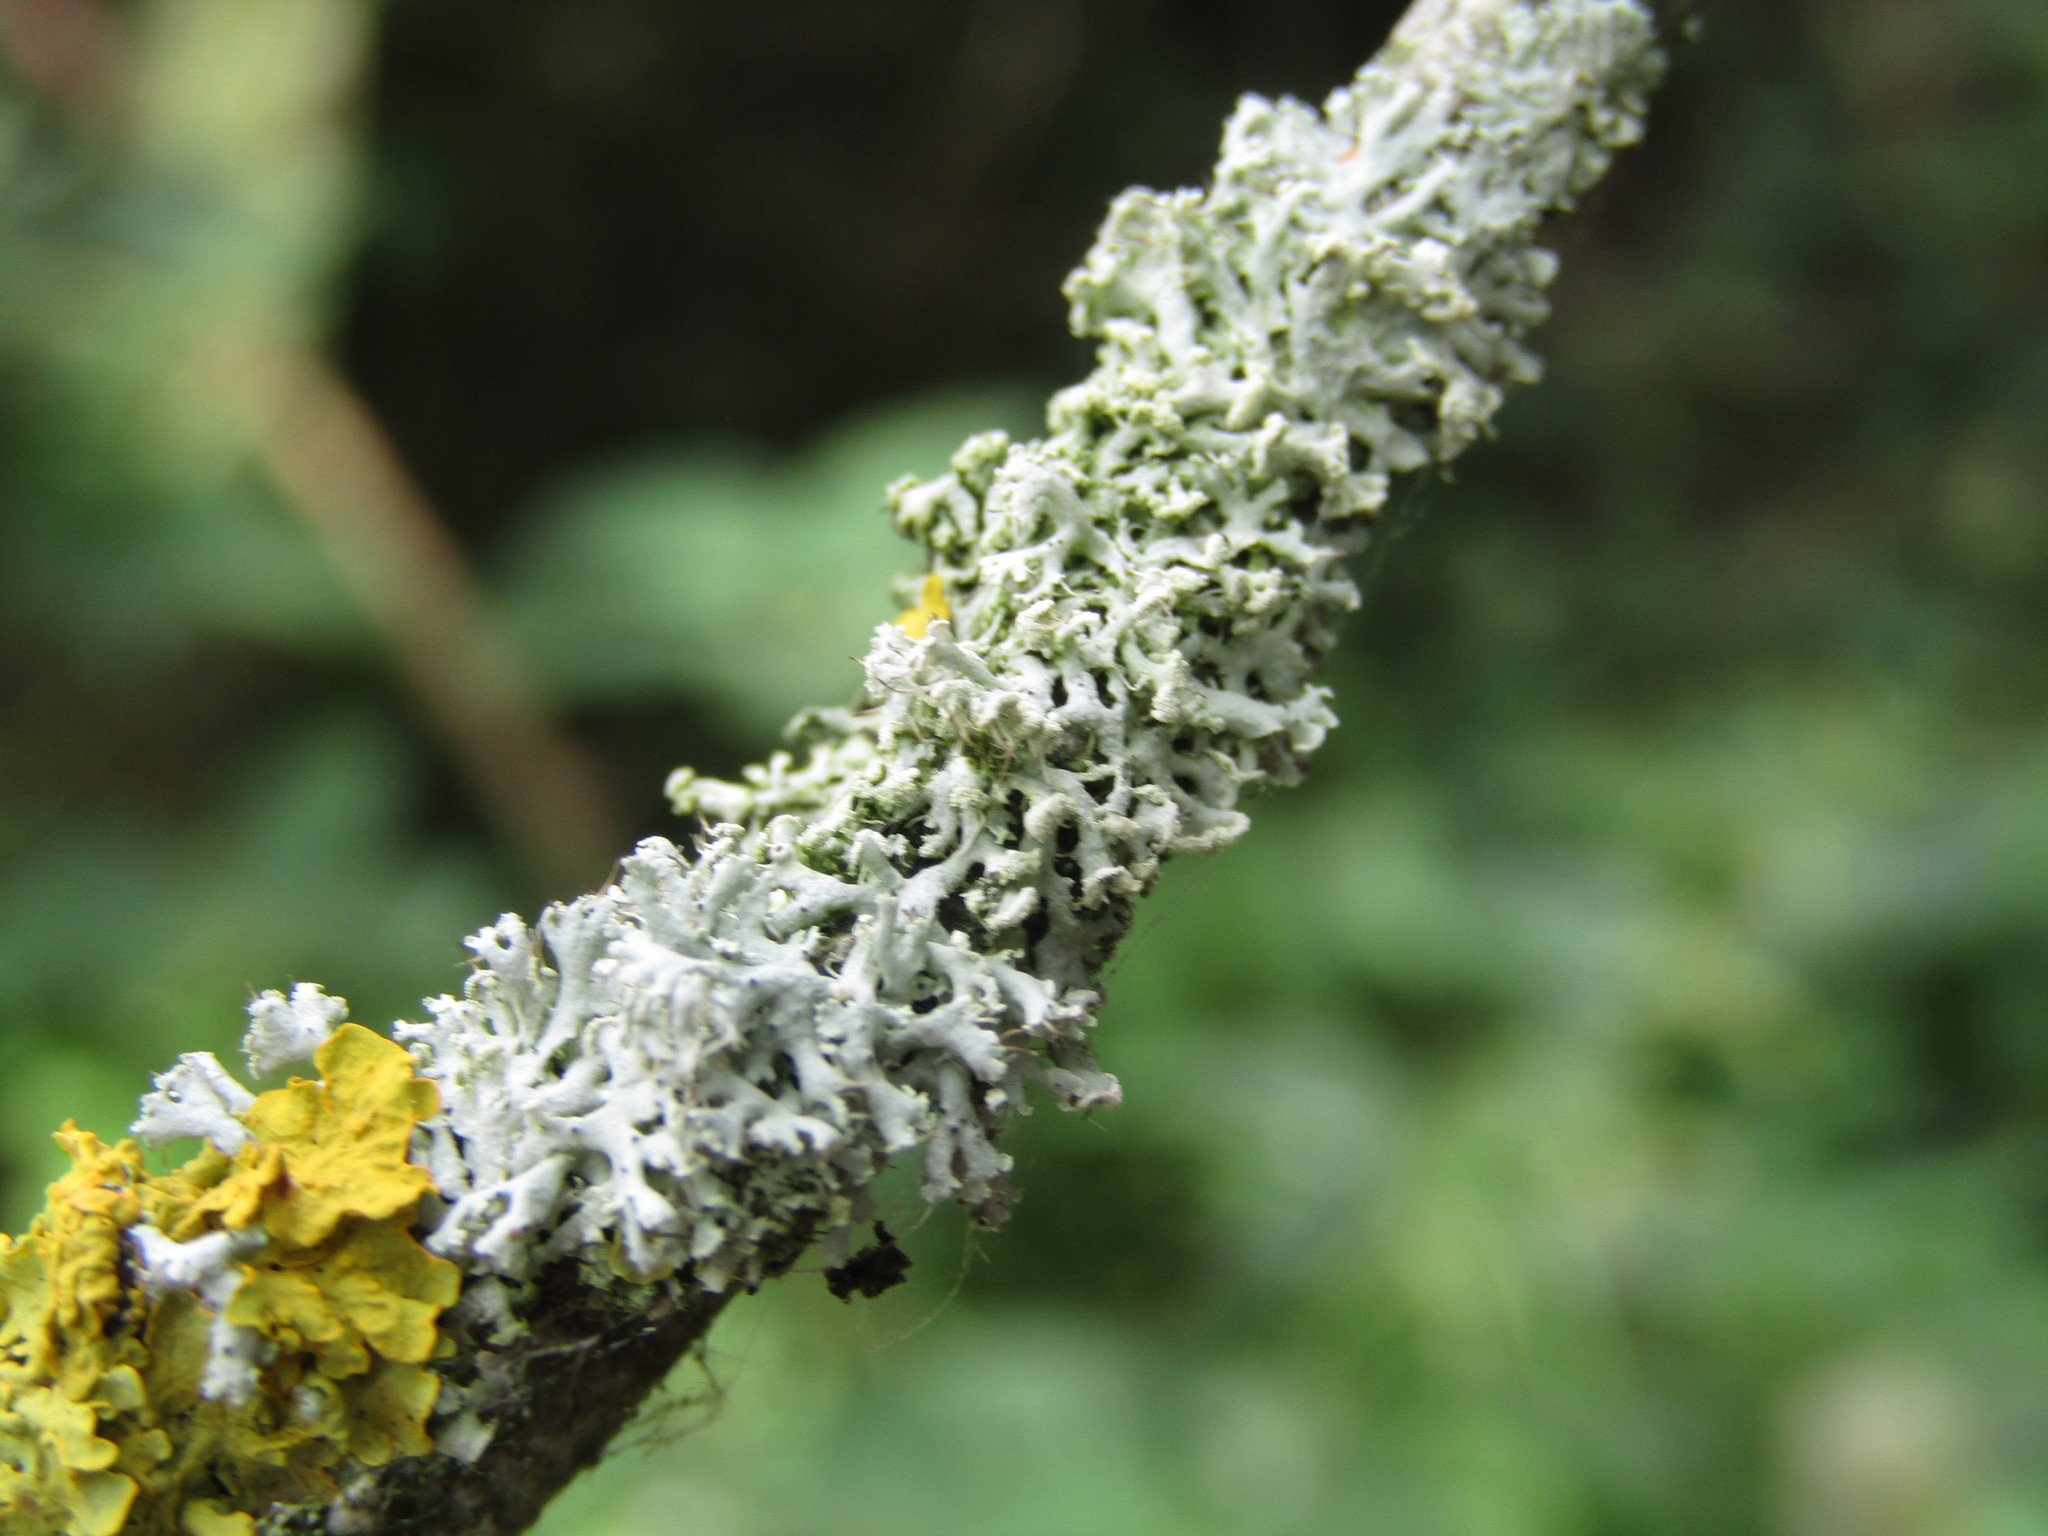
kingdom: Fungi
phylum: Ascomycota
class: Lecanoromycetes
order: Caliciales
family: Physciaceae
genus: Physcia
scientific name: Physcia tenella
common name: Fringed rosette lichen
